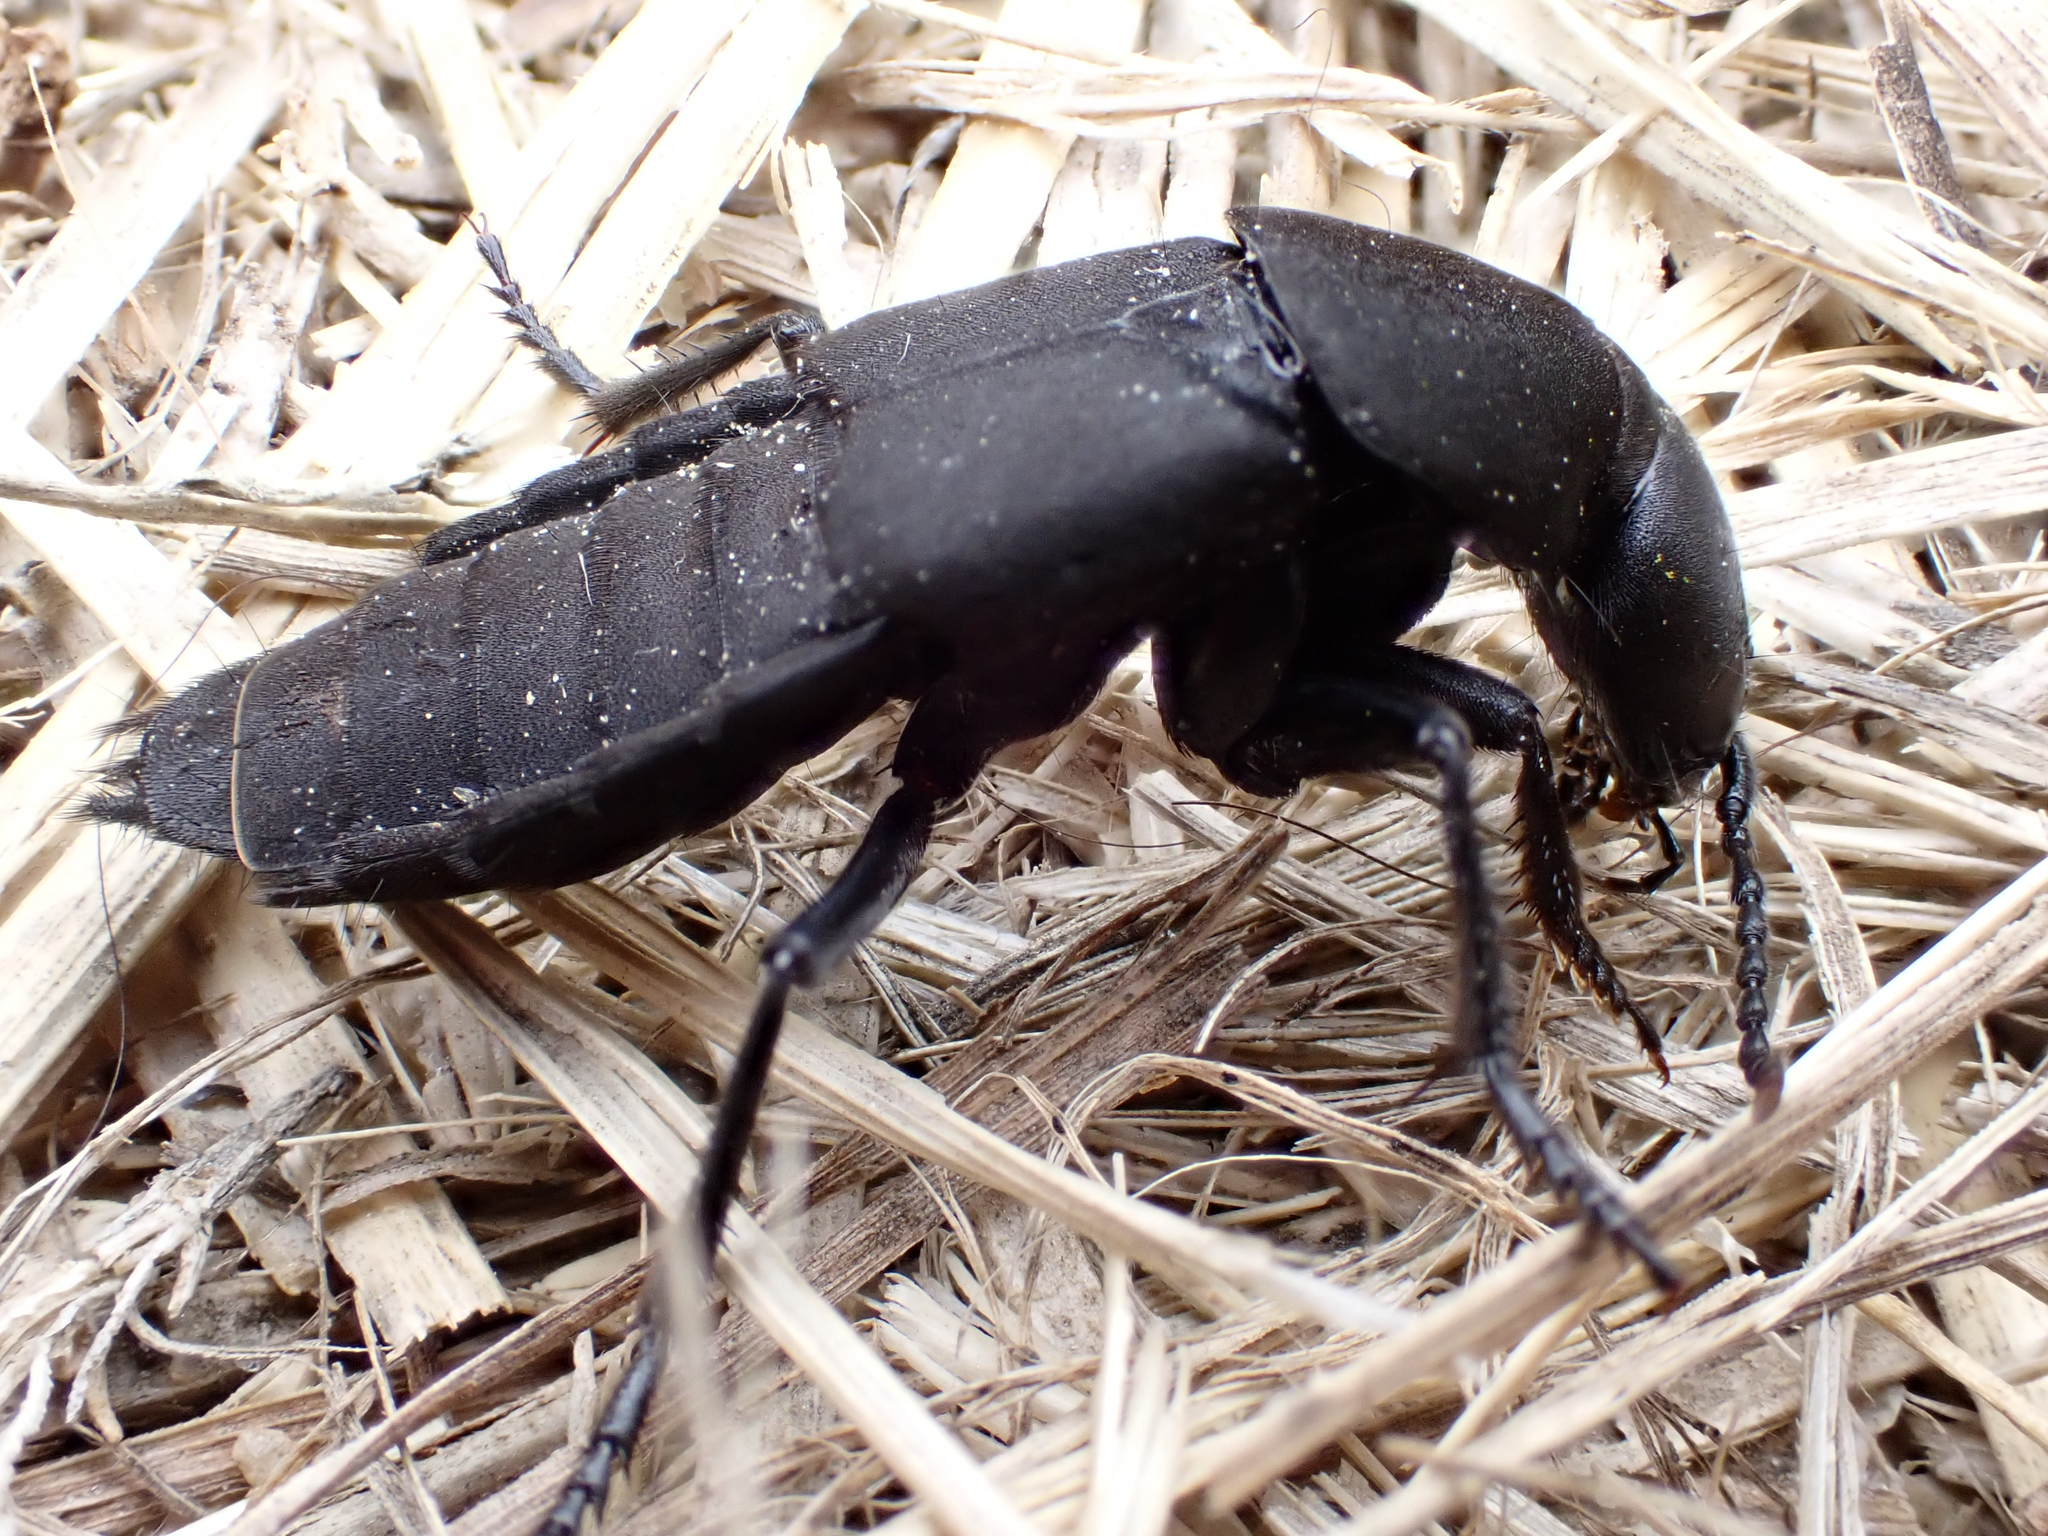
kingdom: Animalia
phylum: Arthropoda
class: Insecta
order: Coleoptera
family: Staphylinidae
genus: Ocypus
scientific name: Ocypus olens
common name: Devil's coach-horse
